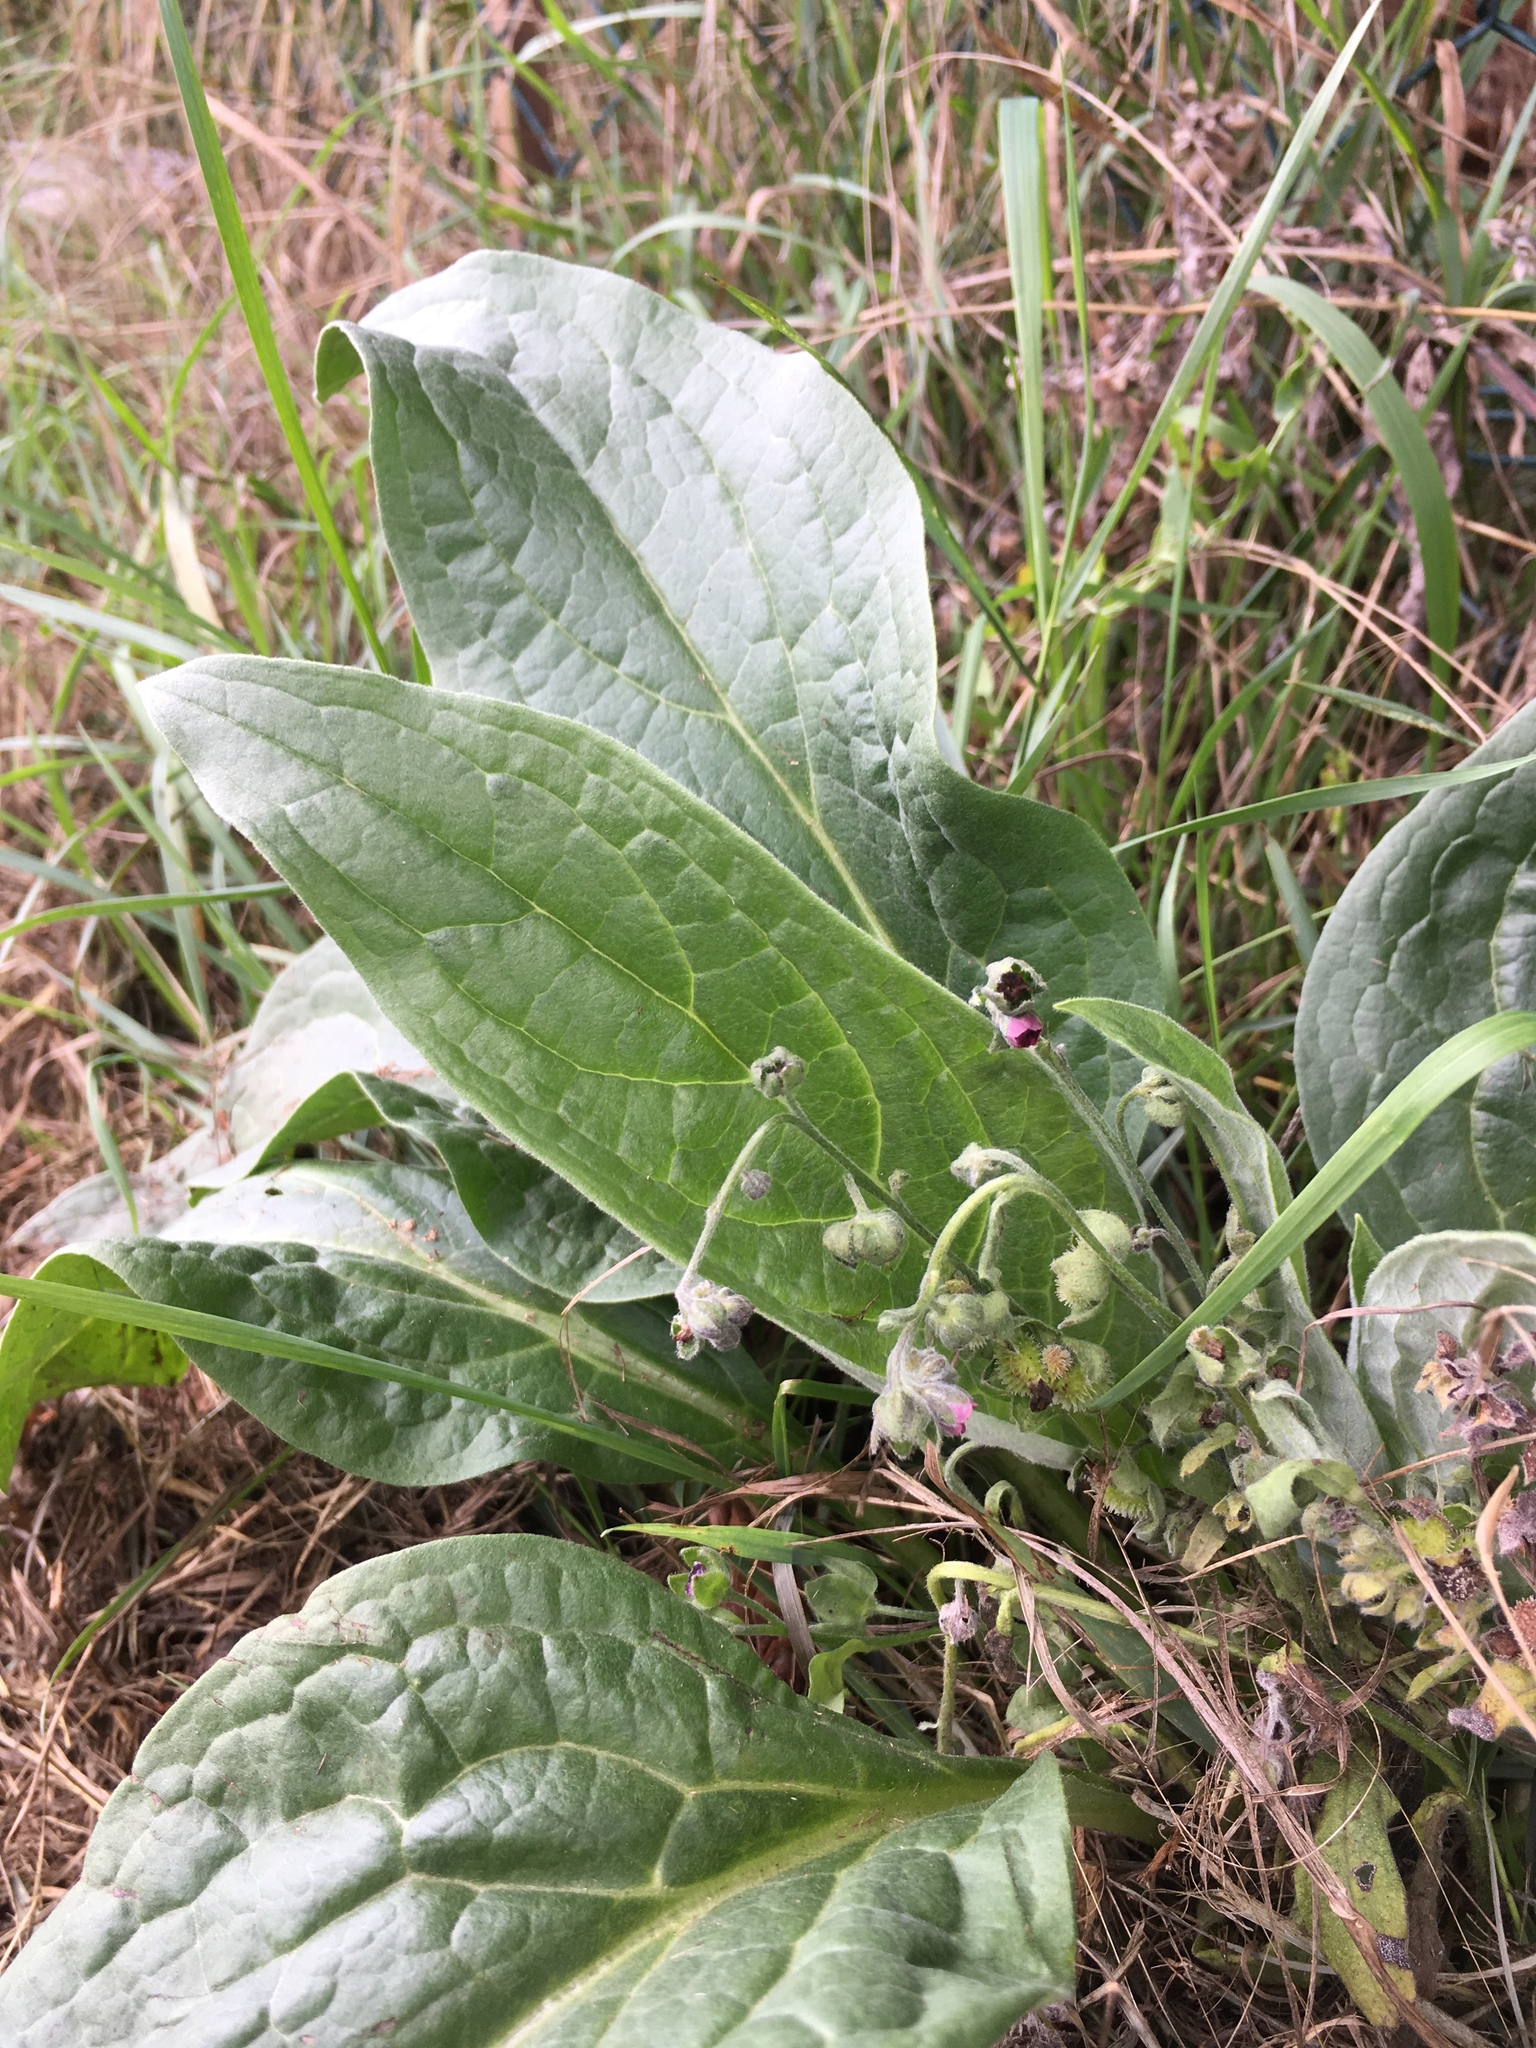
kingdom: Plantae
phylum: Tracheophyta
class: Magnoliopsida
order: Boraginales
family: Boraginaceae
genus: Cynoglossum
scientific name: Cynoglossum officinale
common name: Hound's-tongue
